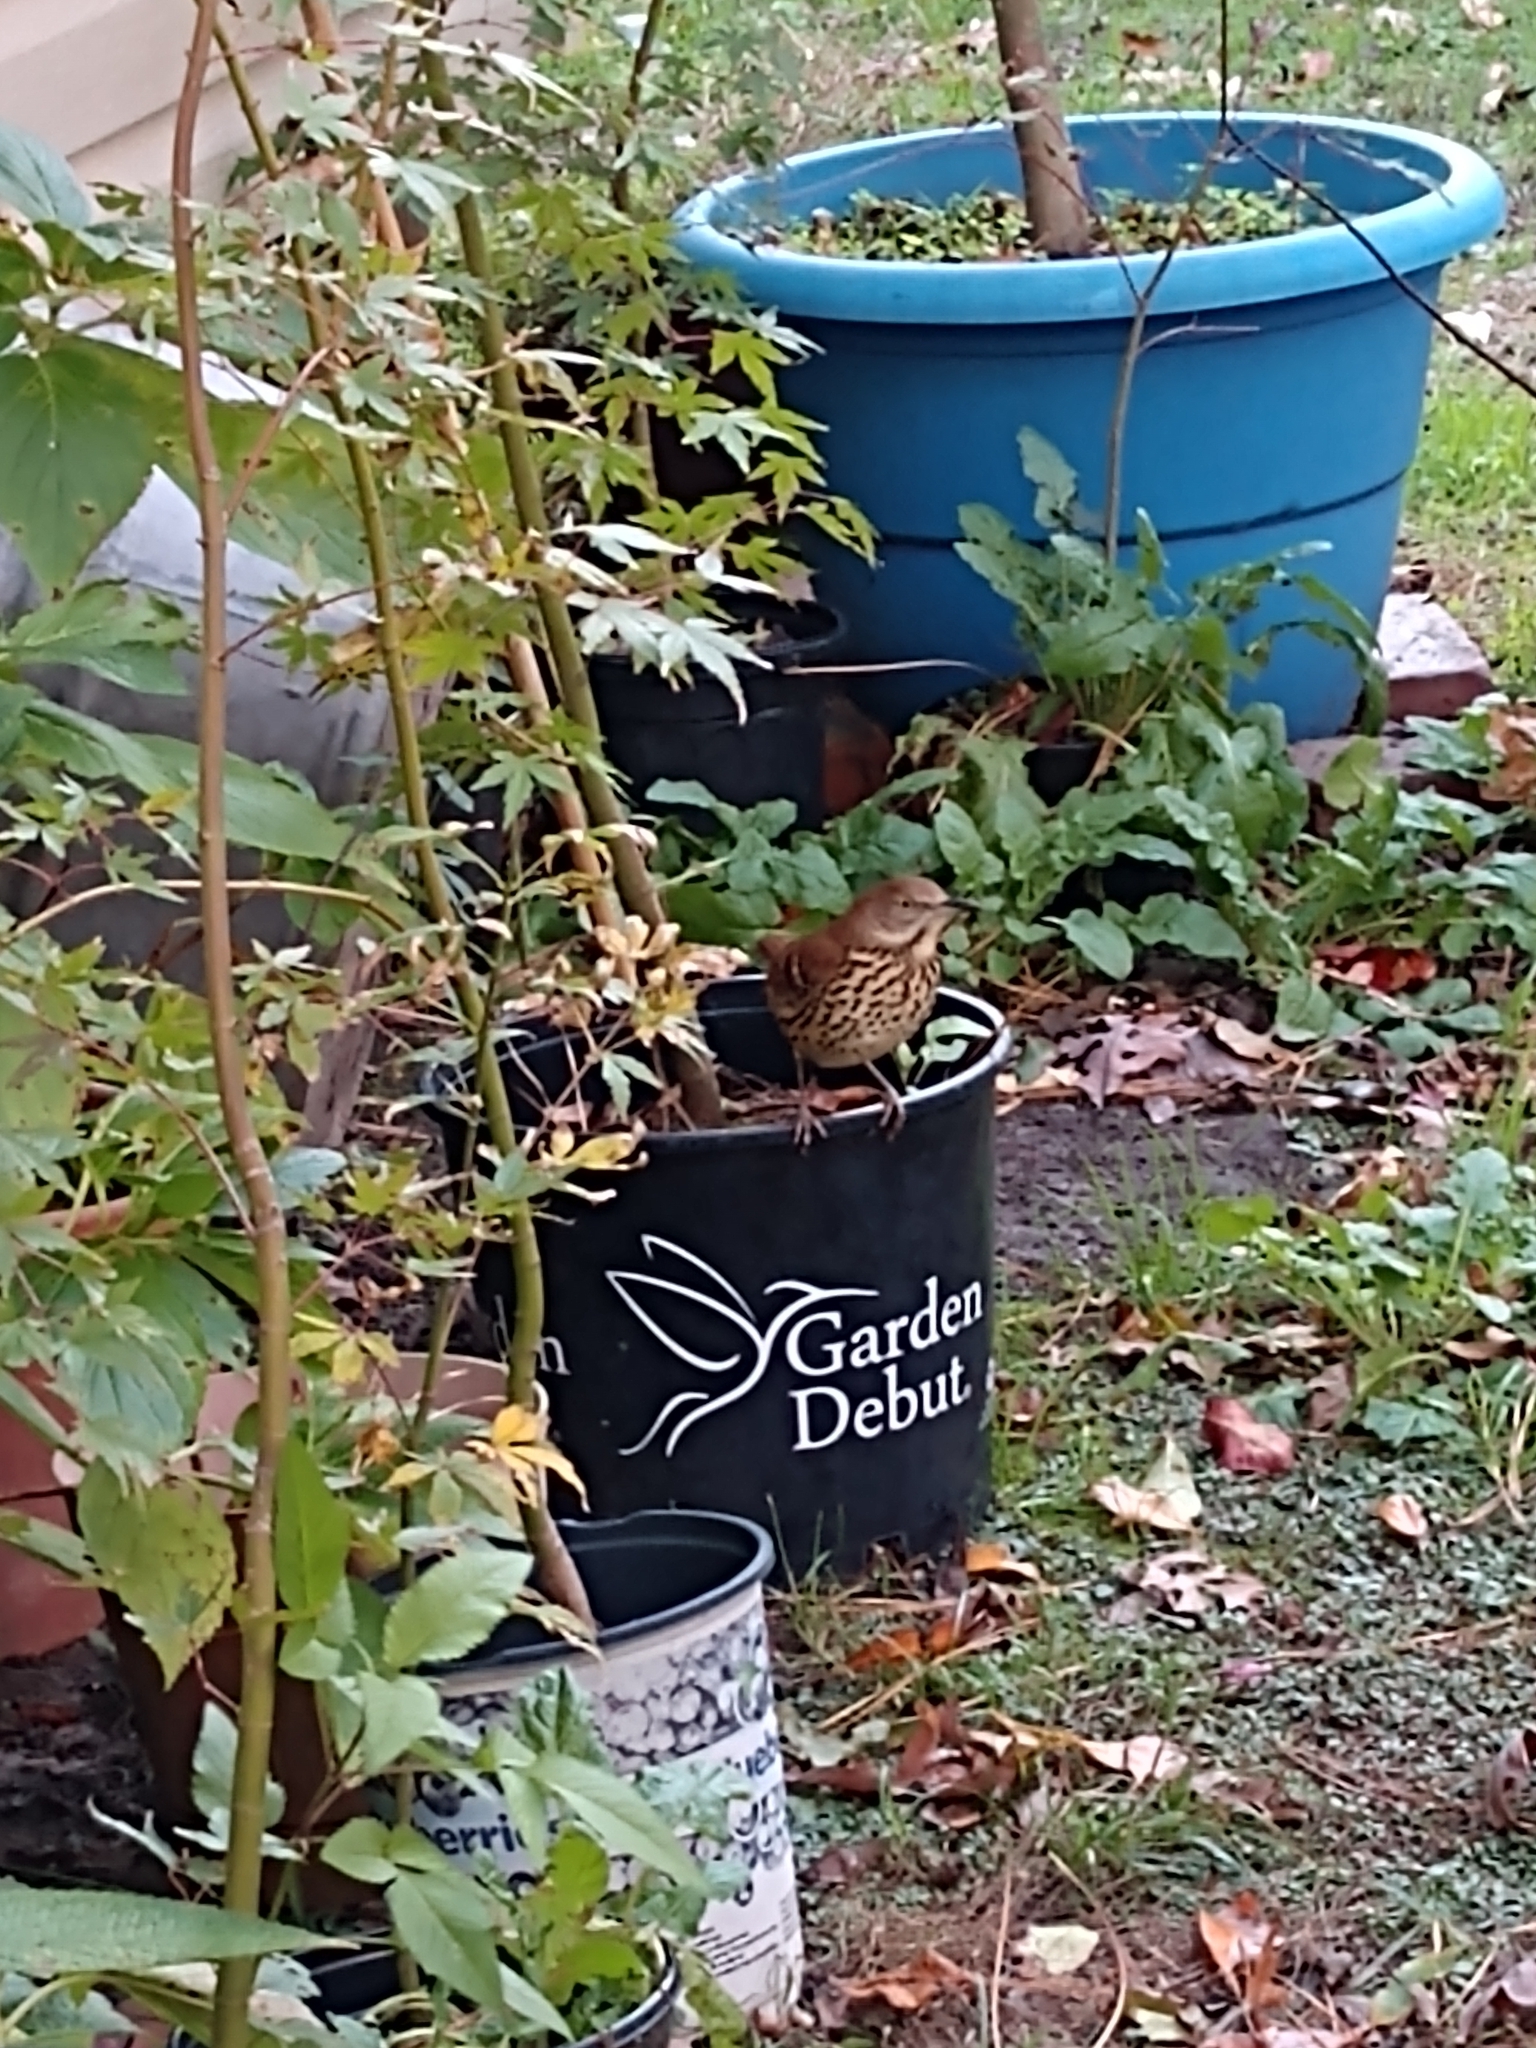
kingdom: Animalia
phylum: Chordata
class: Aves
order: Passeriformes
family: Mimidae
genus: Toxostoma
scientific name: Toxostoma rufum
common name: Brown thrasher
